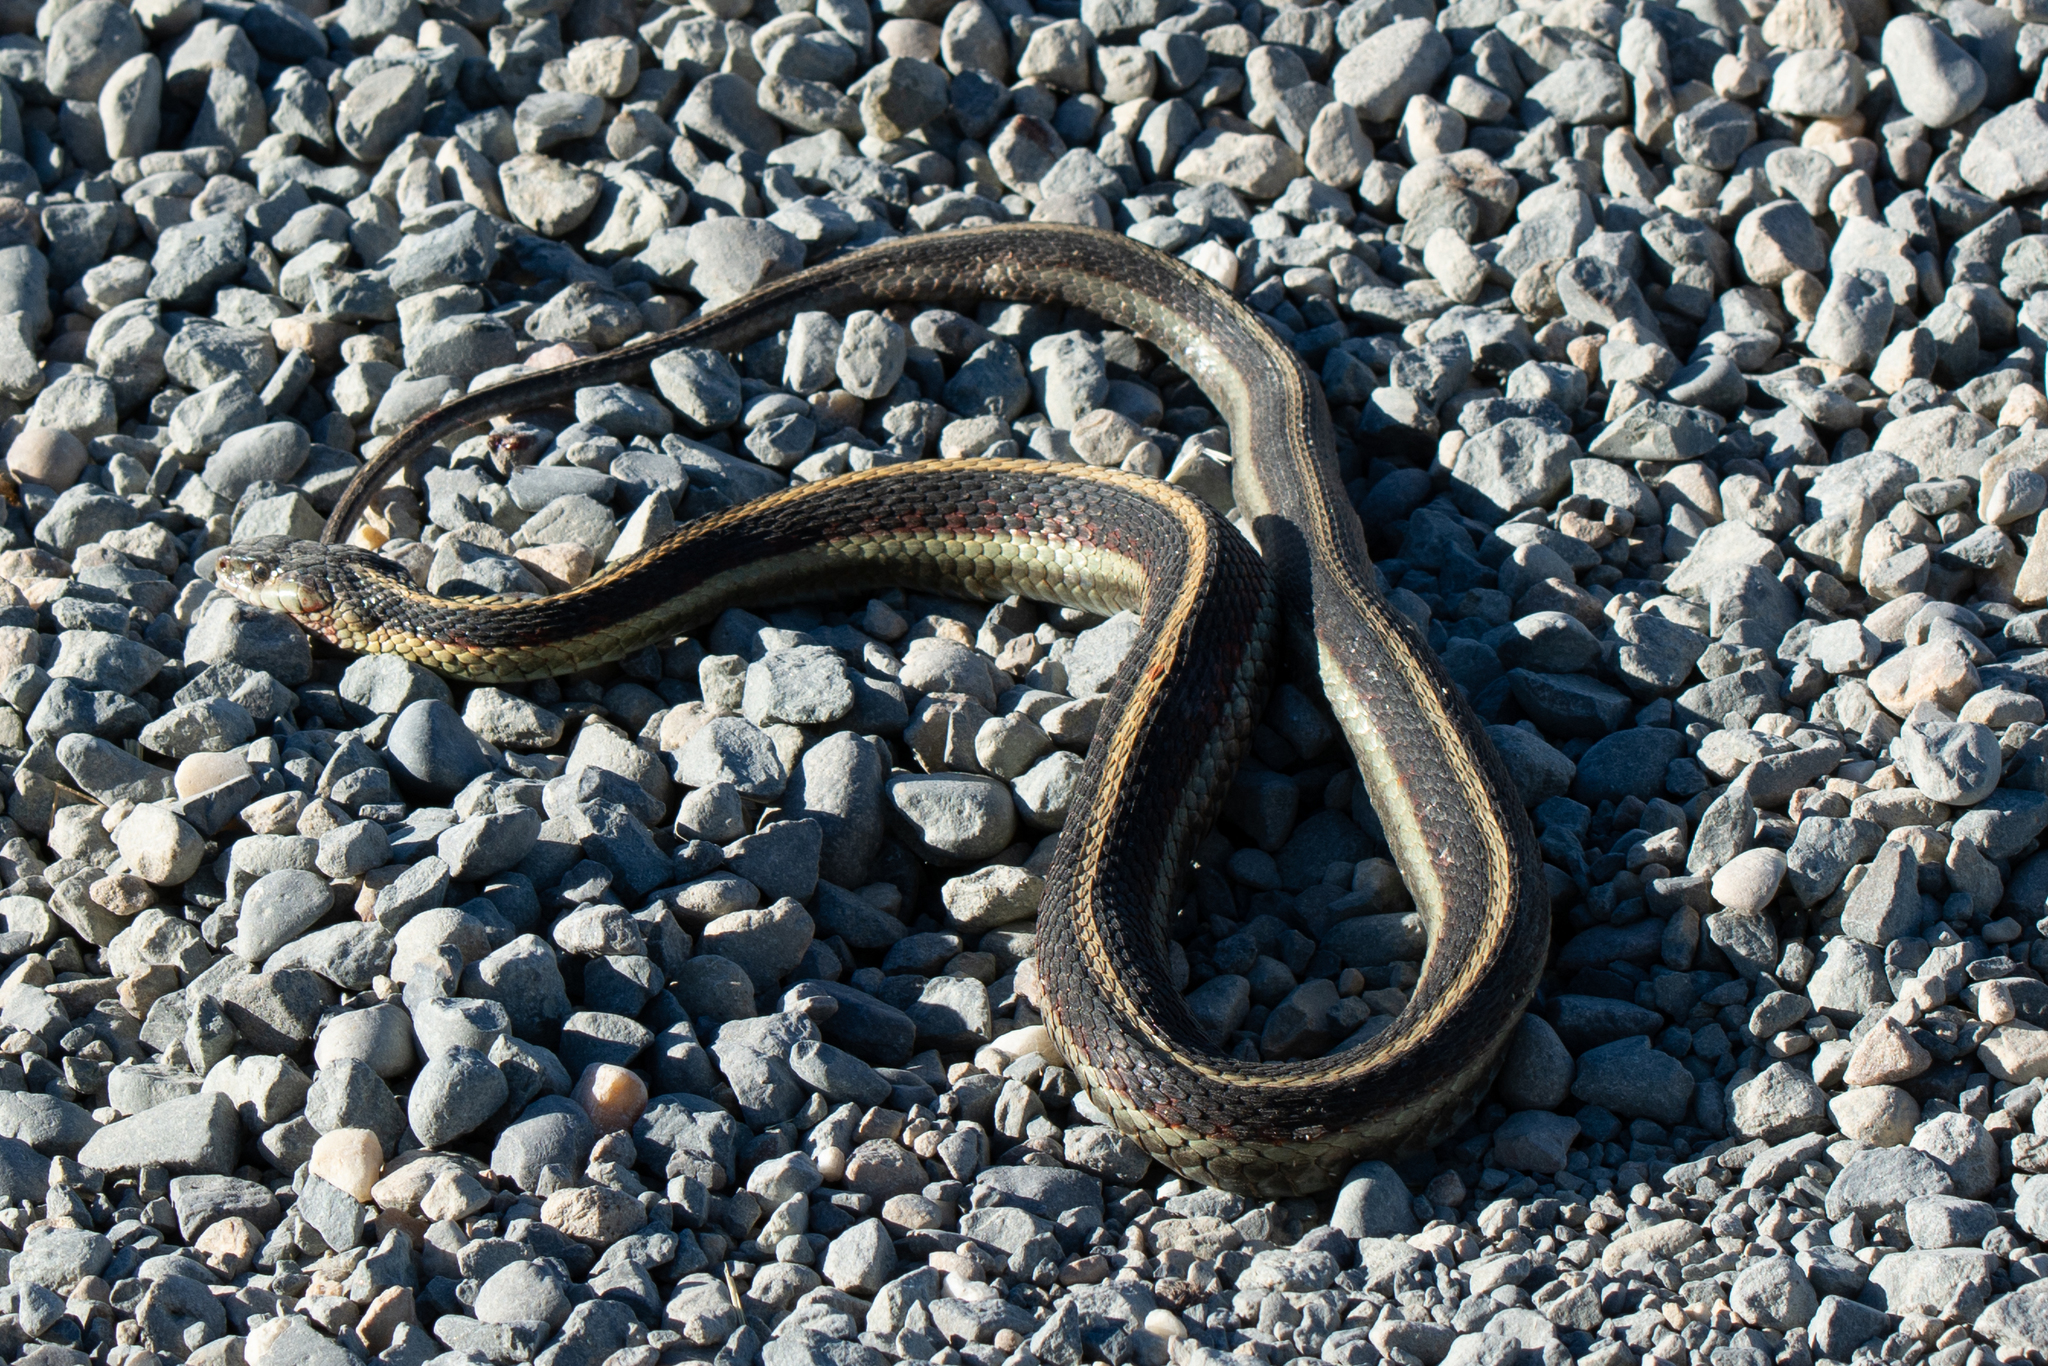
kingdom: Animalia
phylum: Chordata
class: Squamata
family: Colubridae
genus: Thamnophis
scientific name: Thamnophis sirtalis
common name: Common garter snake
